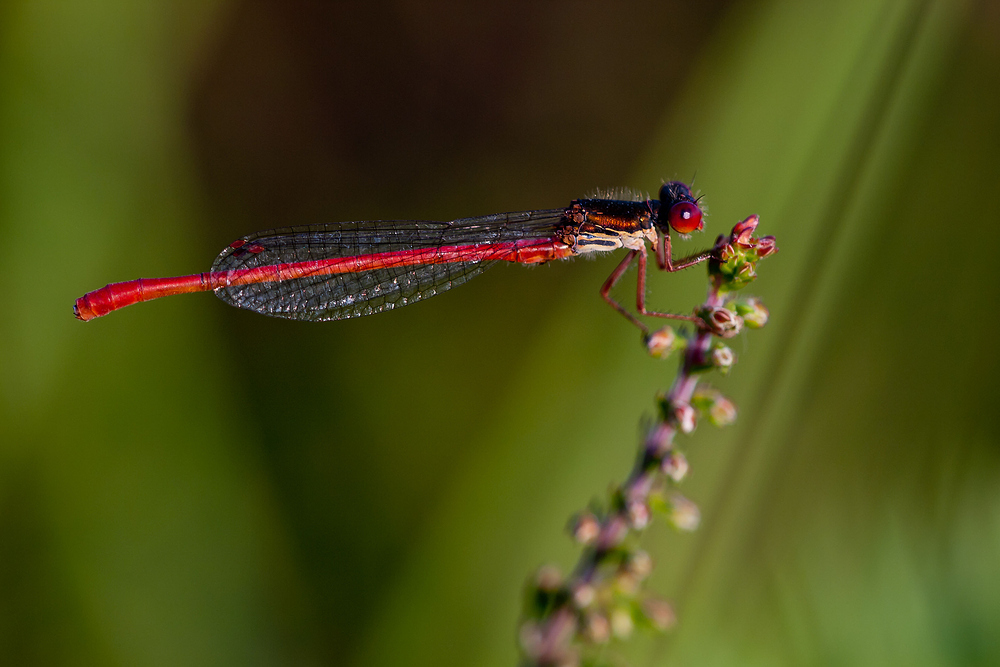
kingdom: Animalia
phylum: Arthropoda
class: Insecta
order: Odonata
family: Coenagrionidae
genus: Ceriagrion
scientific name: Ceriagrion tenellum
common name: Small red damselfly
